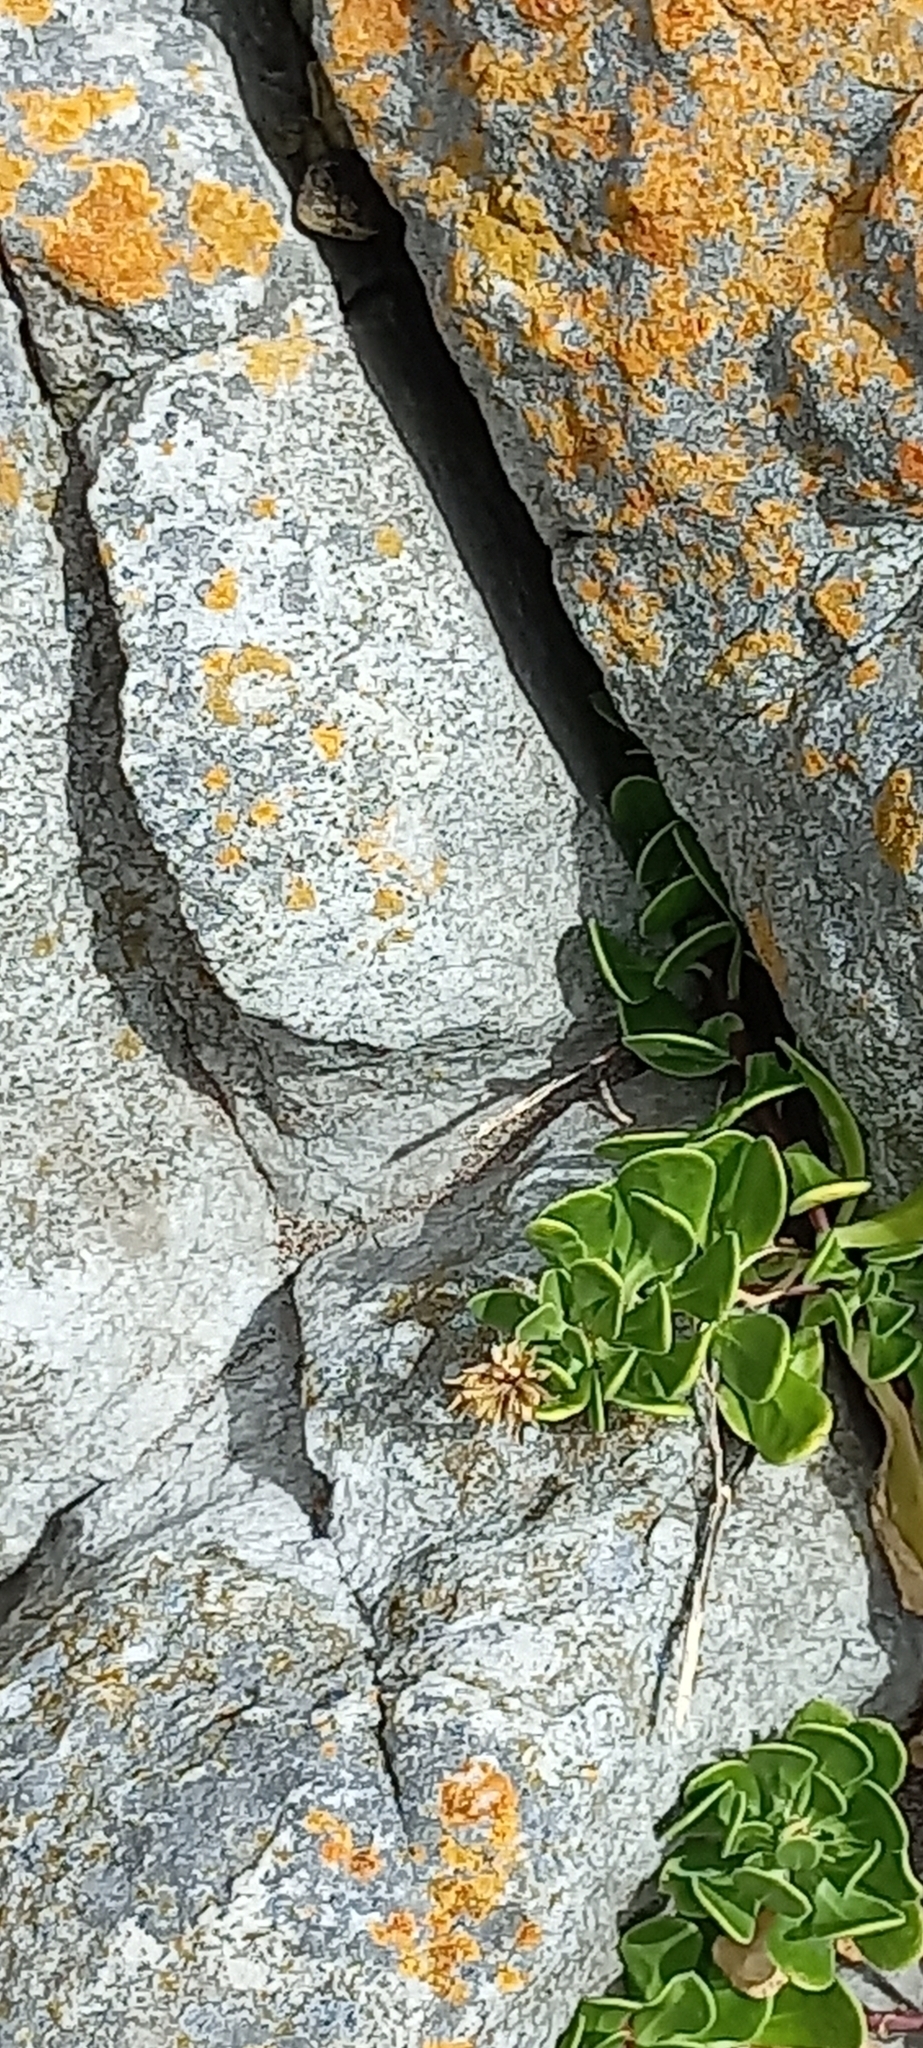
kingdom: Animalia
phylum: Chordata
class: Squamata
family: Cordylidae
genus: Cordylus
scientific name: Cordylus cordylus
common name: Cape girdled lizard
